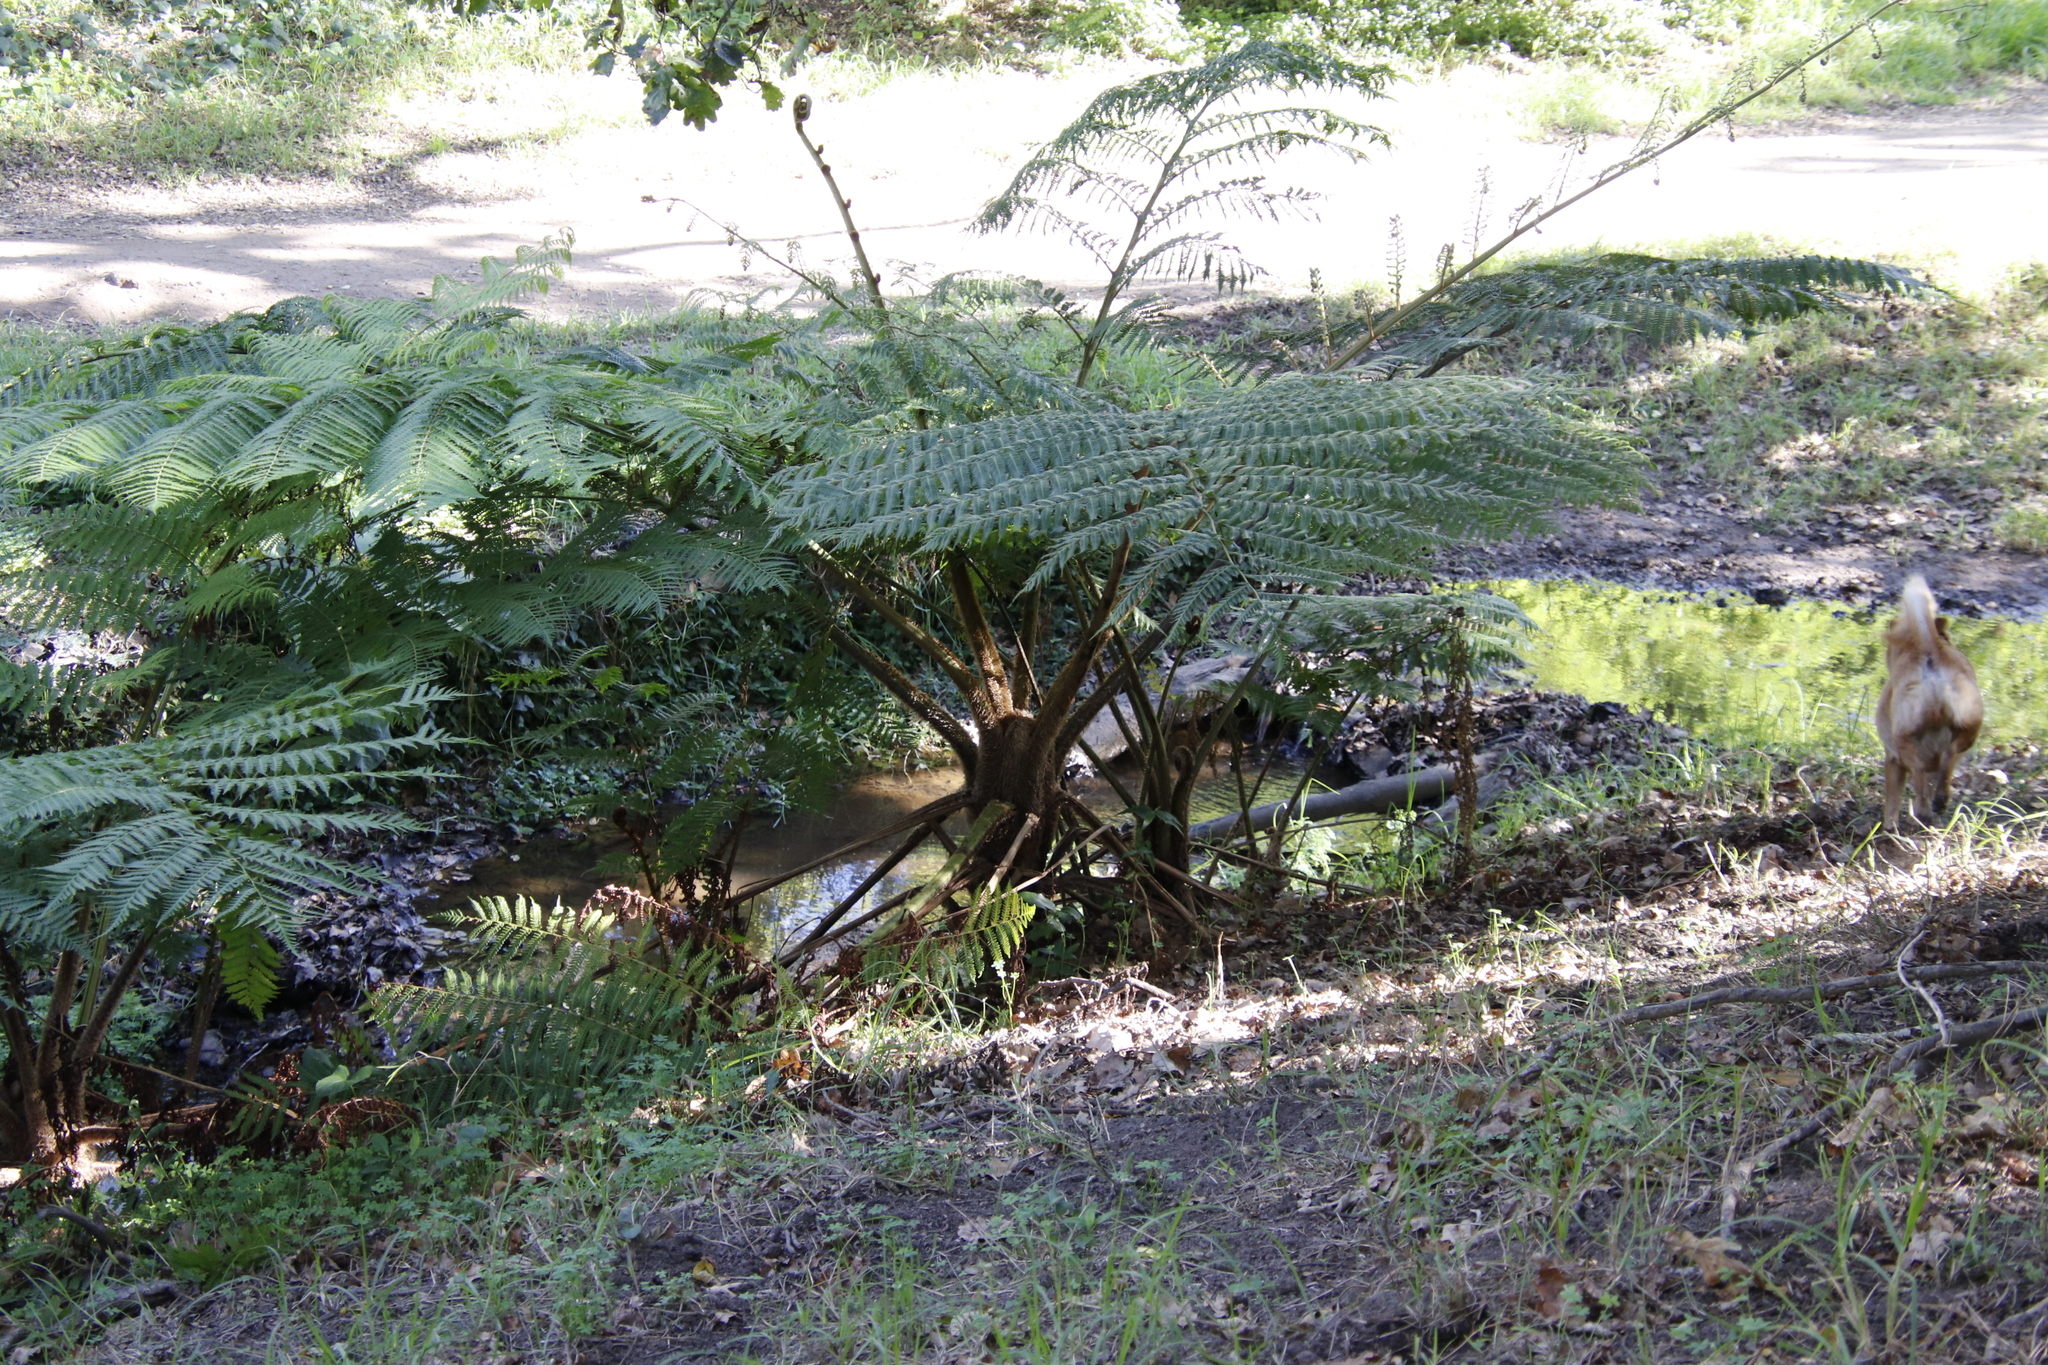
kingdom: Plantae
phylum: Tracheophyta
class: Polypodiopsida
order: Cyatheales
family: Cyatheaceae
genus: Sphaeropteris
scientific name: Sphaeropteris cooperi
